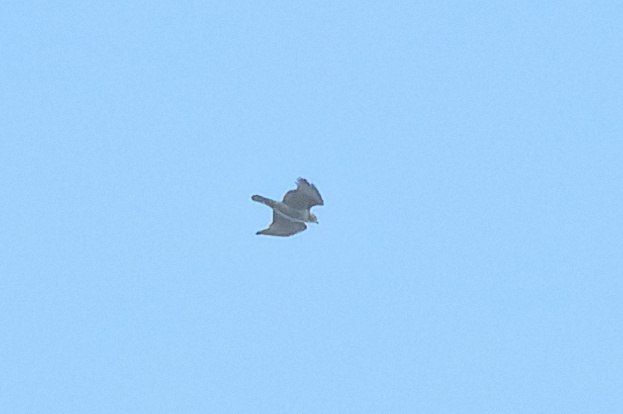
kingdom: Animalia
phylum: Chordata
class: Aves
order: Accipitriformes
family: Accipitridae
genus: Buteo
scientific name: Buteo jamaicensis
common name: Red-tailed hawk
